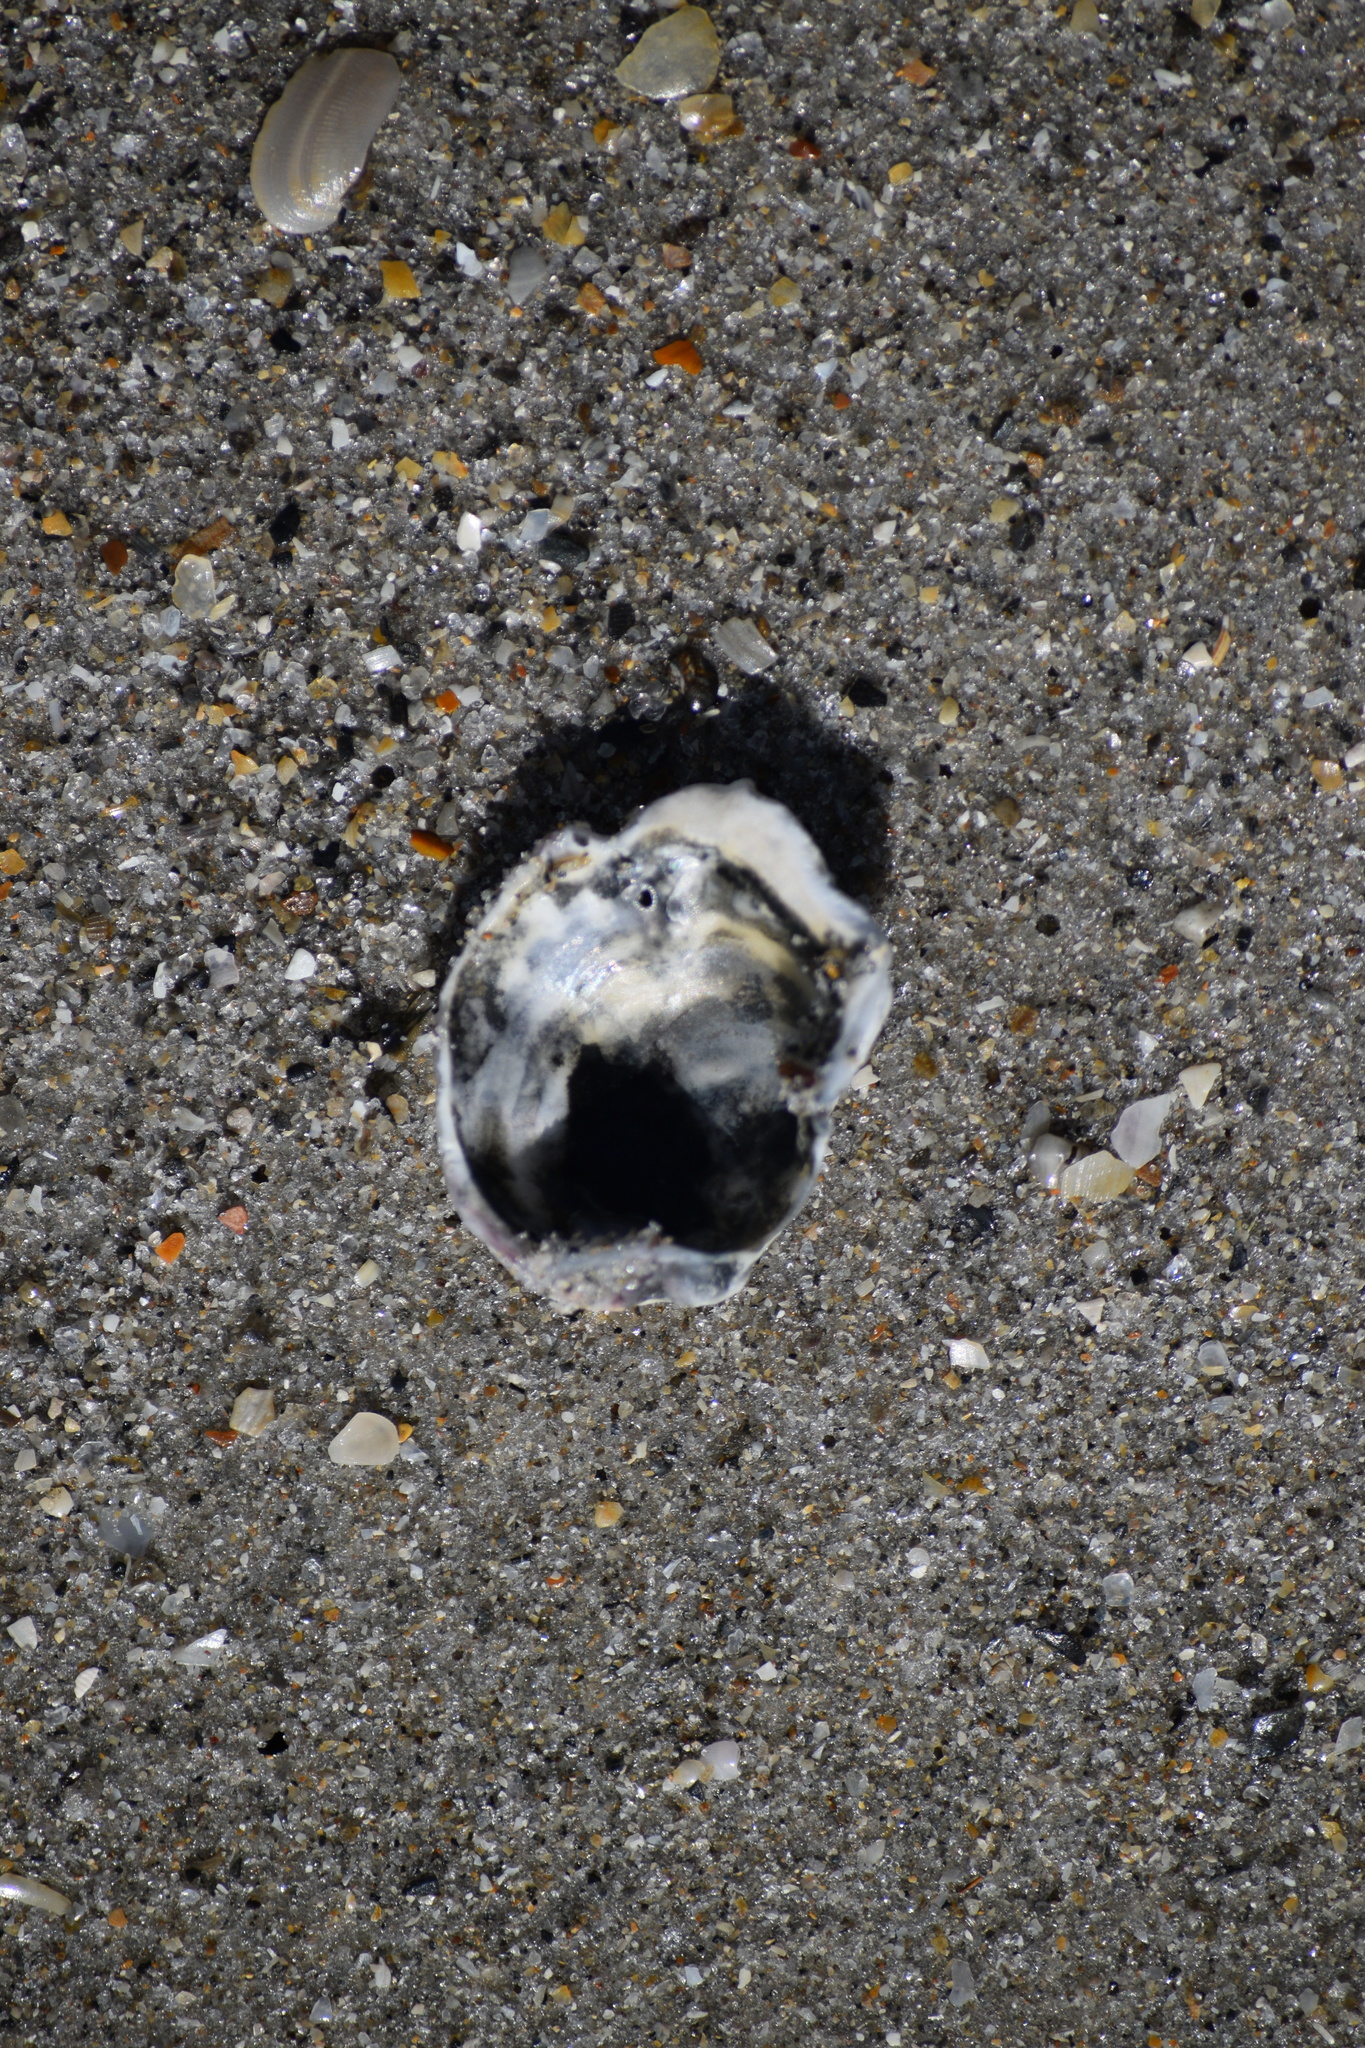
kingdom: Animalia
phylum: Mollusca
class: Bivalvia
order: Ostreida
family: Ostreidae
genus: Crassostrea
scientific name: Crassostrea virginica
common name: American oyster
